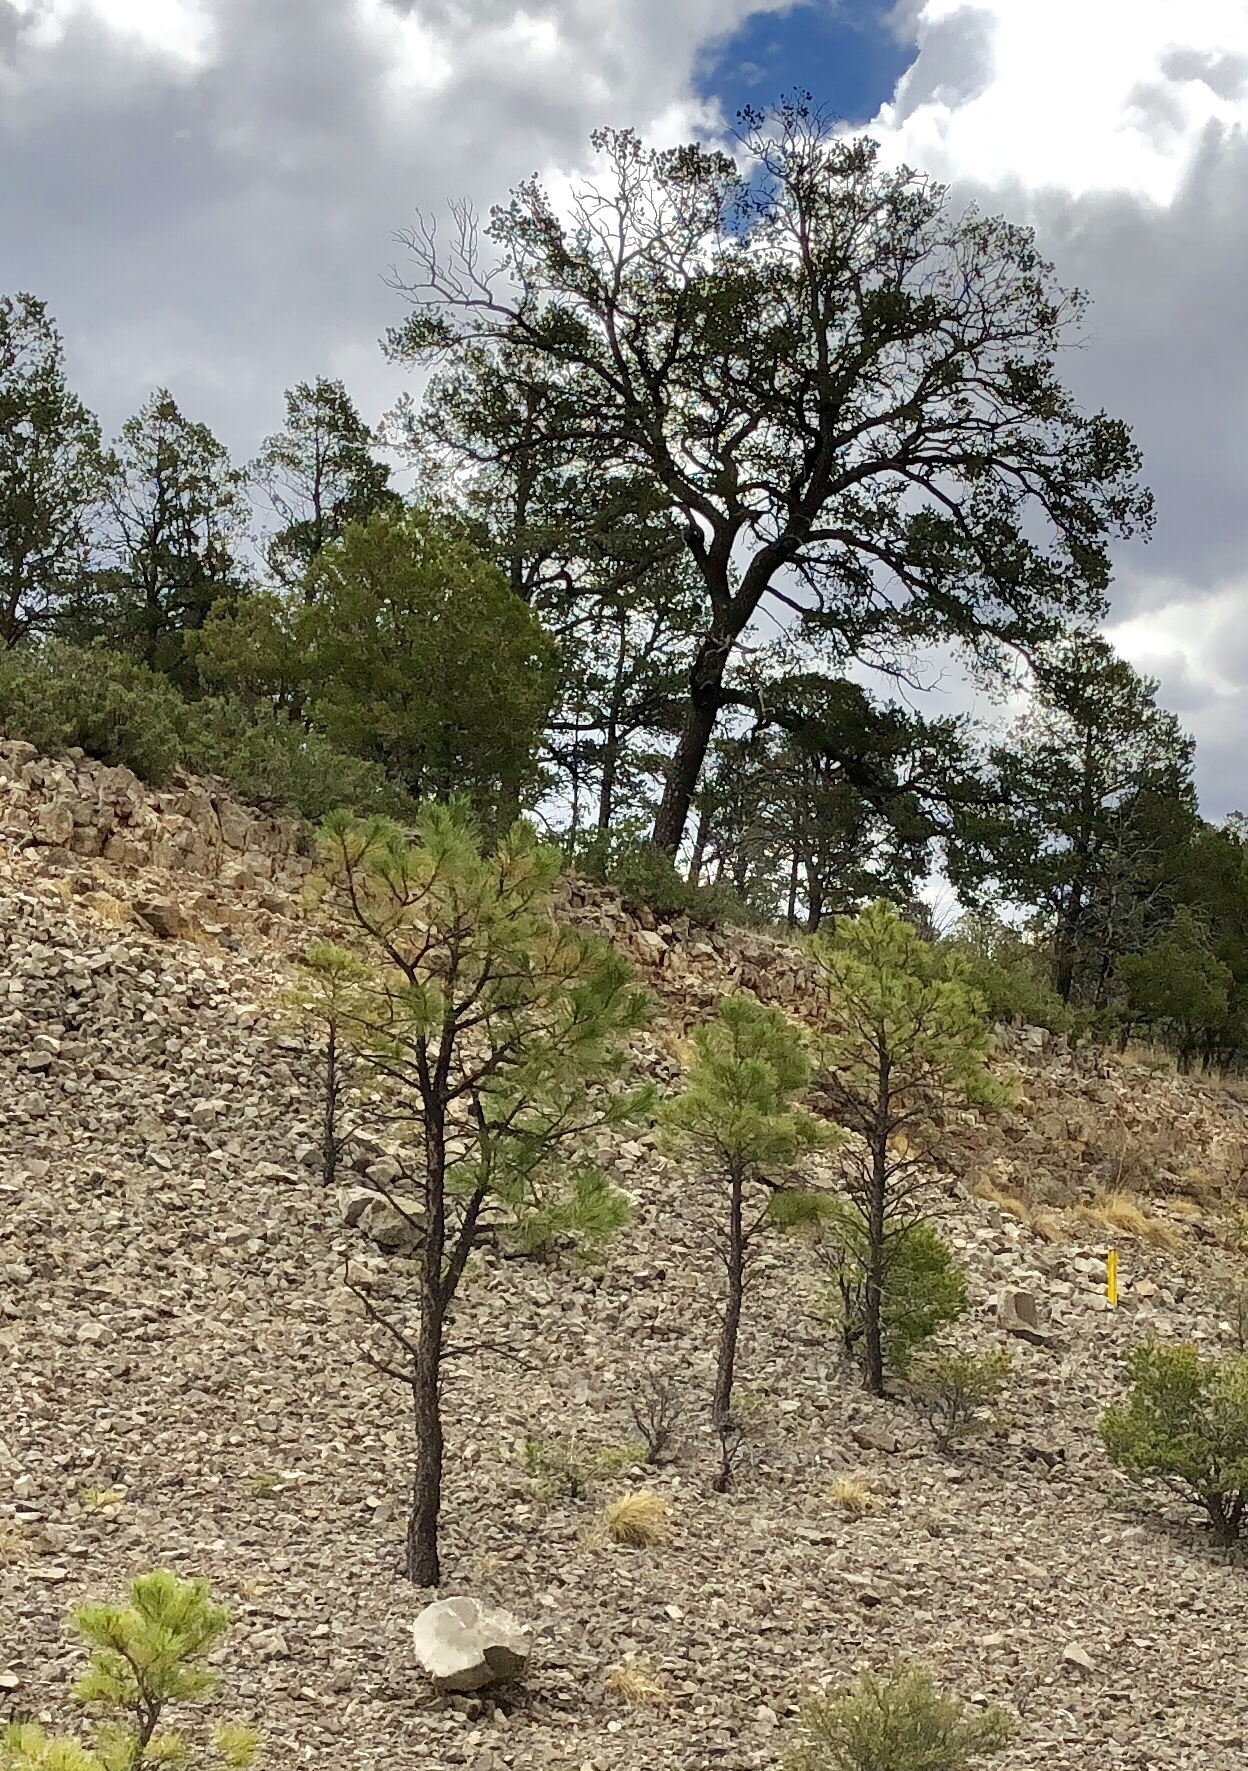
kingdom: Plantae
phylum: Tracheophyta
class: Pinopsida
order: Pinales
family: Pinaceae
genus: Pinus
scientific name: Pinus ponderosa
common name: Western yellow-pine
